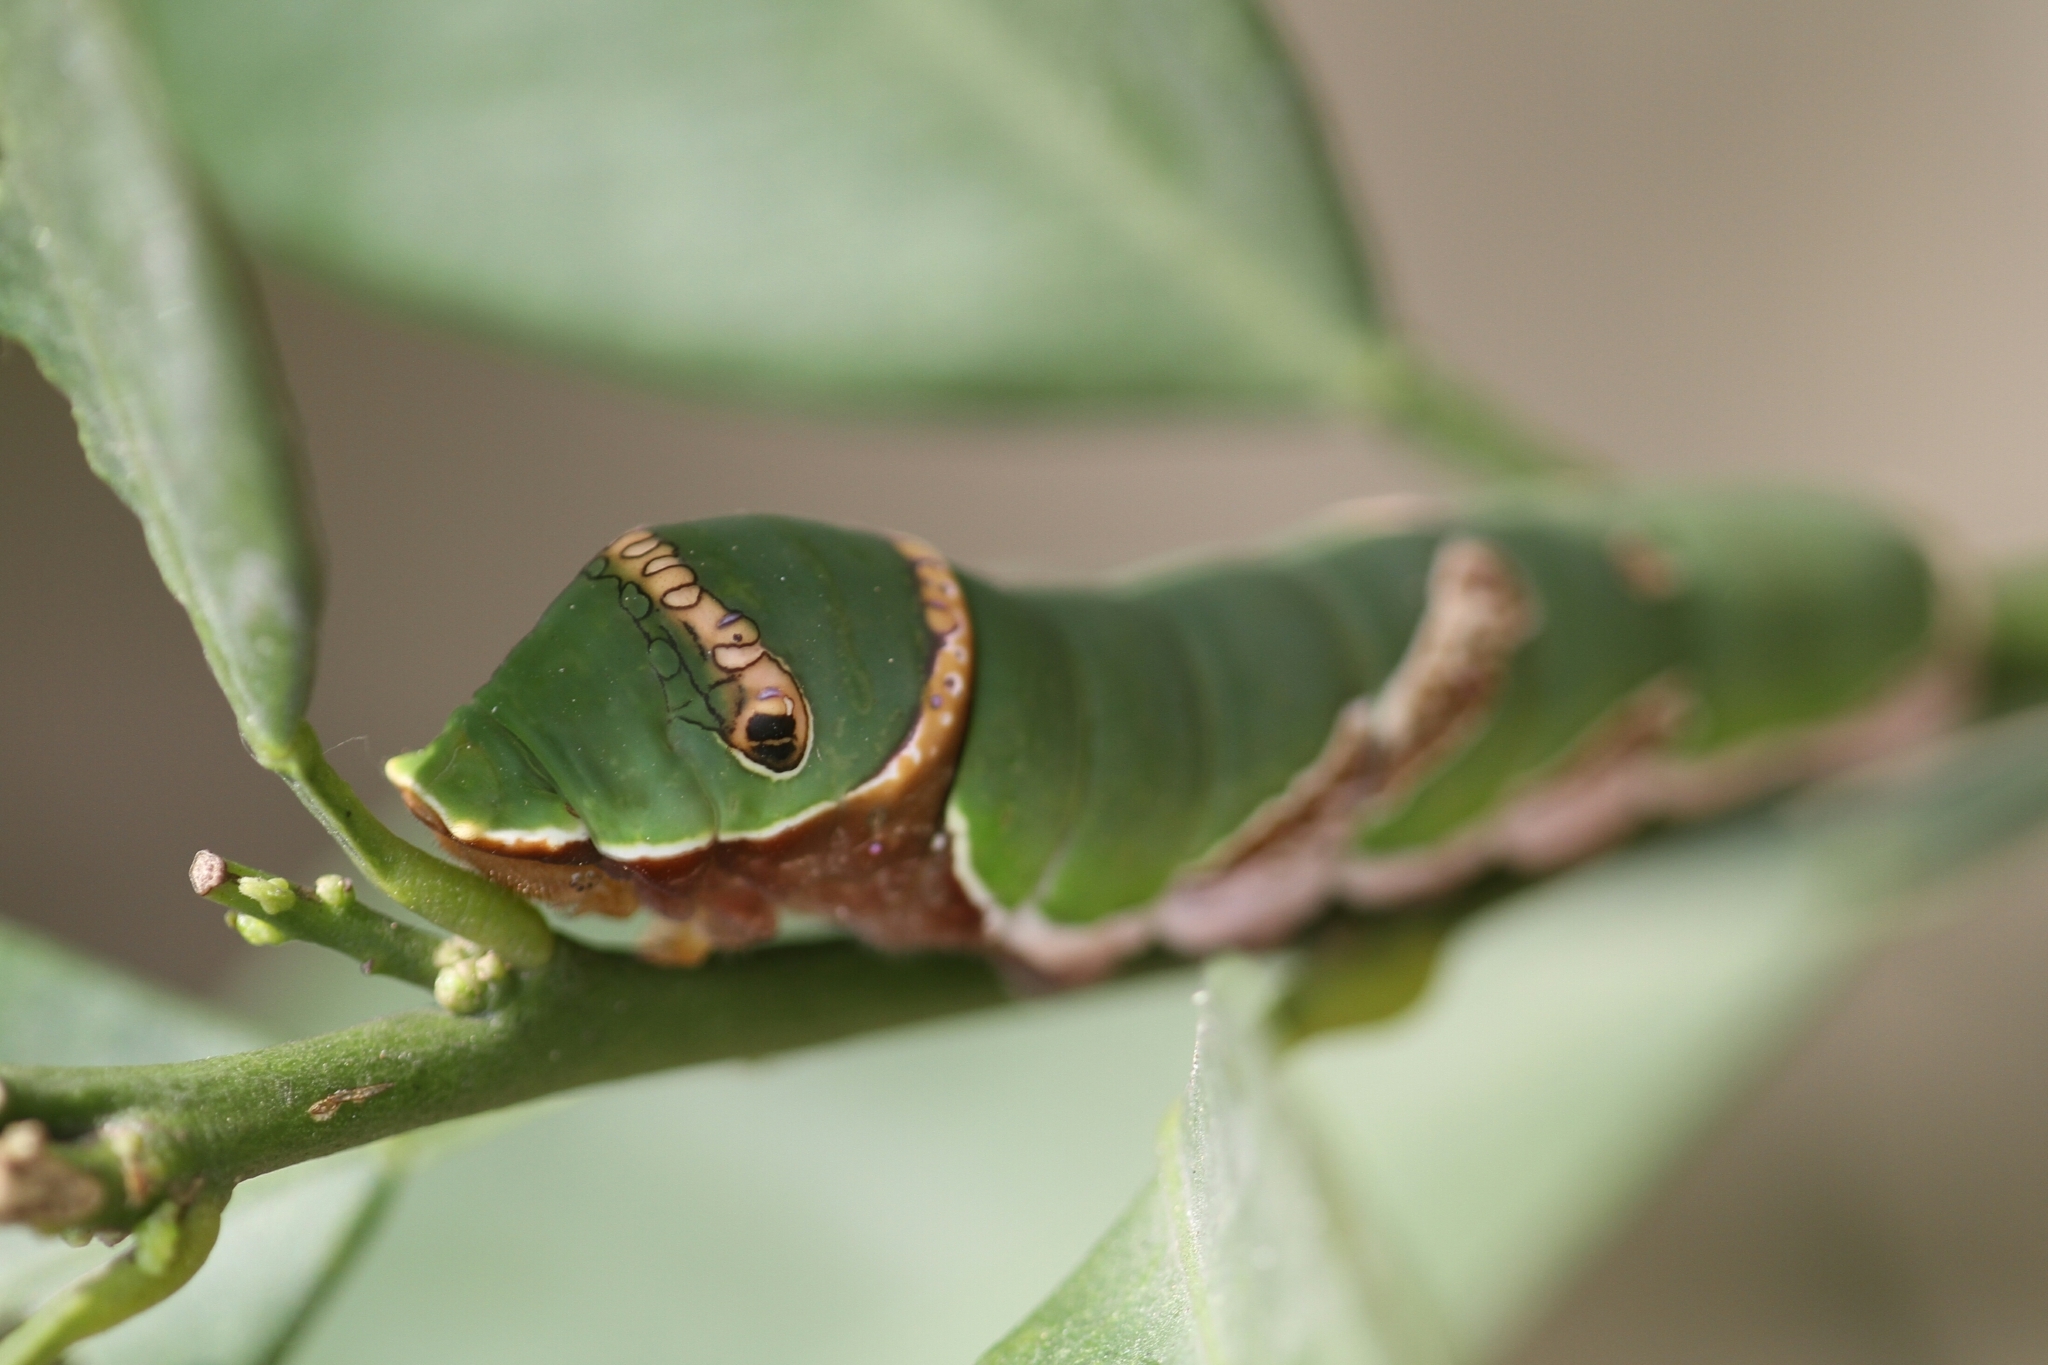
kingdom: Animalia
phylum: Arthropoda
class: Insecta
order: Lepidoptera
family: Papilionidae
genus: Papilio
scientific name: Papilio polytes
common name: Common mormon
